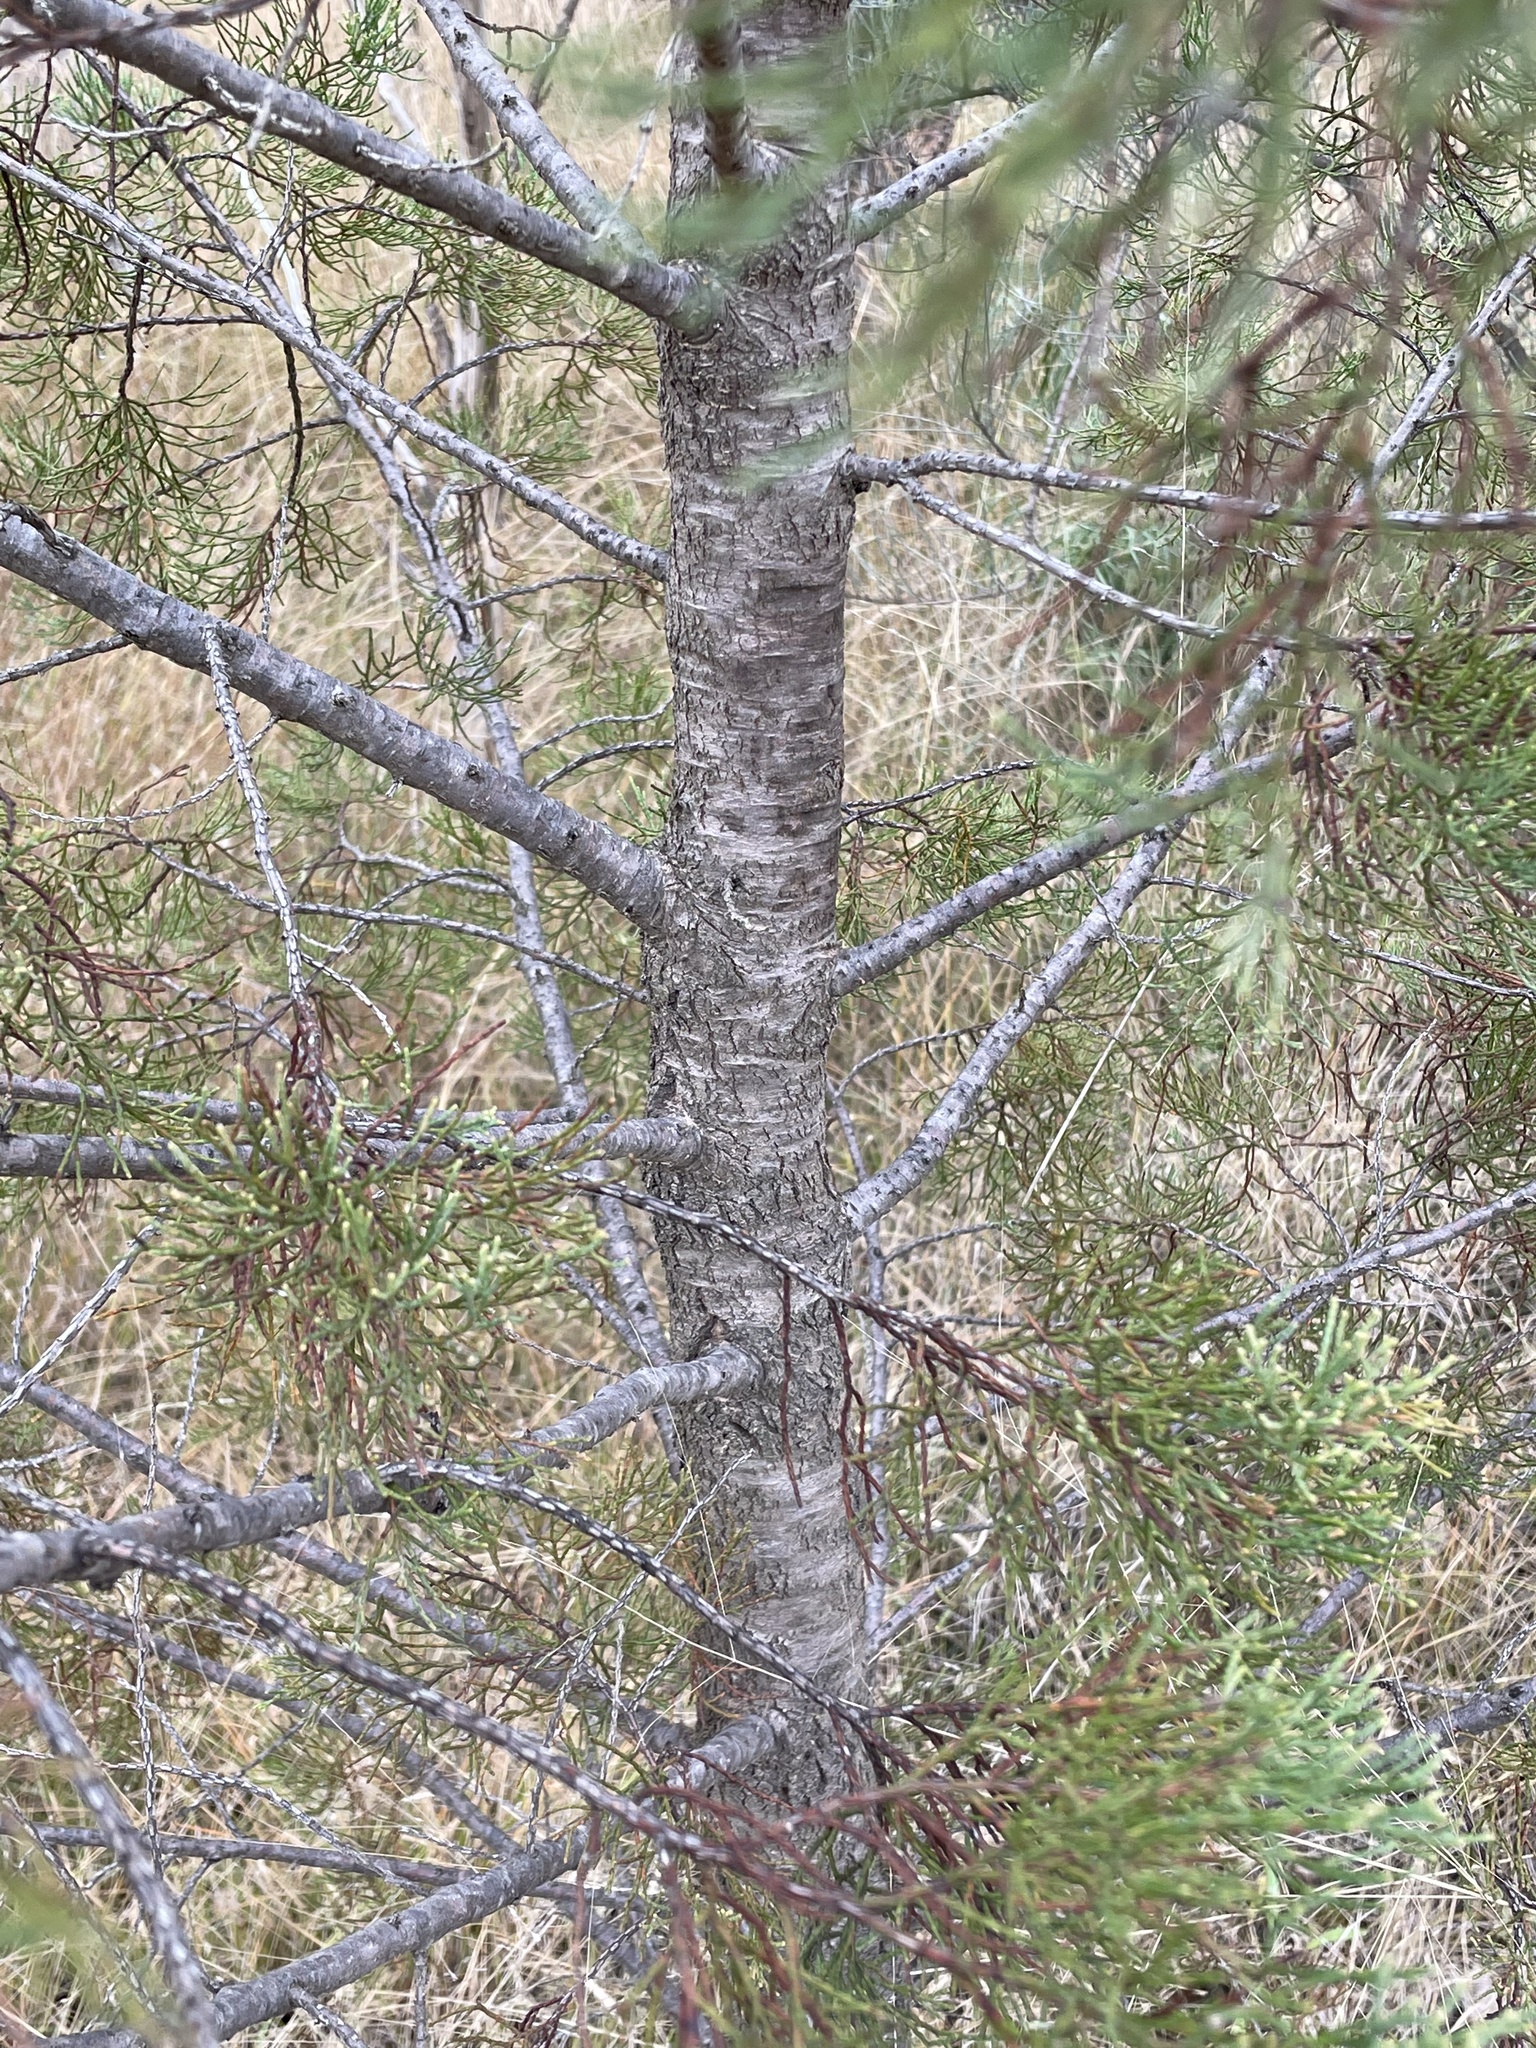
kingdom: Plantae
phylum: Tracheophyta
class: Pinopsida
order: Pinales
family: Cupressaceae
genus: Callitris
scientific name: Callitris columellaris
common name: White cypress-pine
